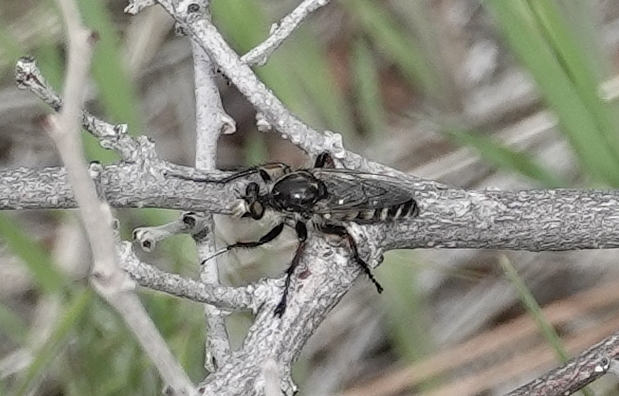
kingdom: Animalia
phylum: Arthropoda
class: Insecta
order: Diptera
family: Asilidae
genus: Cyrtopogon
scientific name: Cyrtopogon plausor
